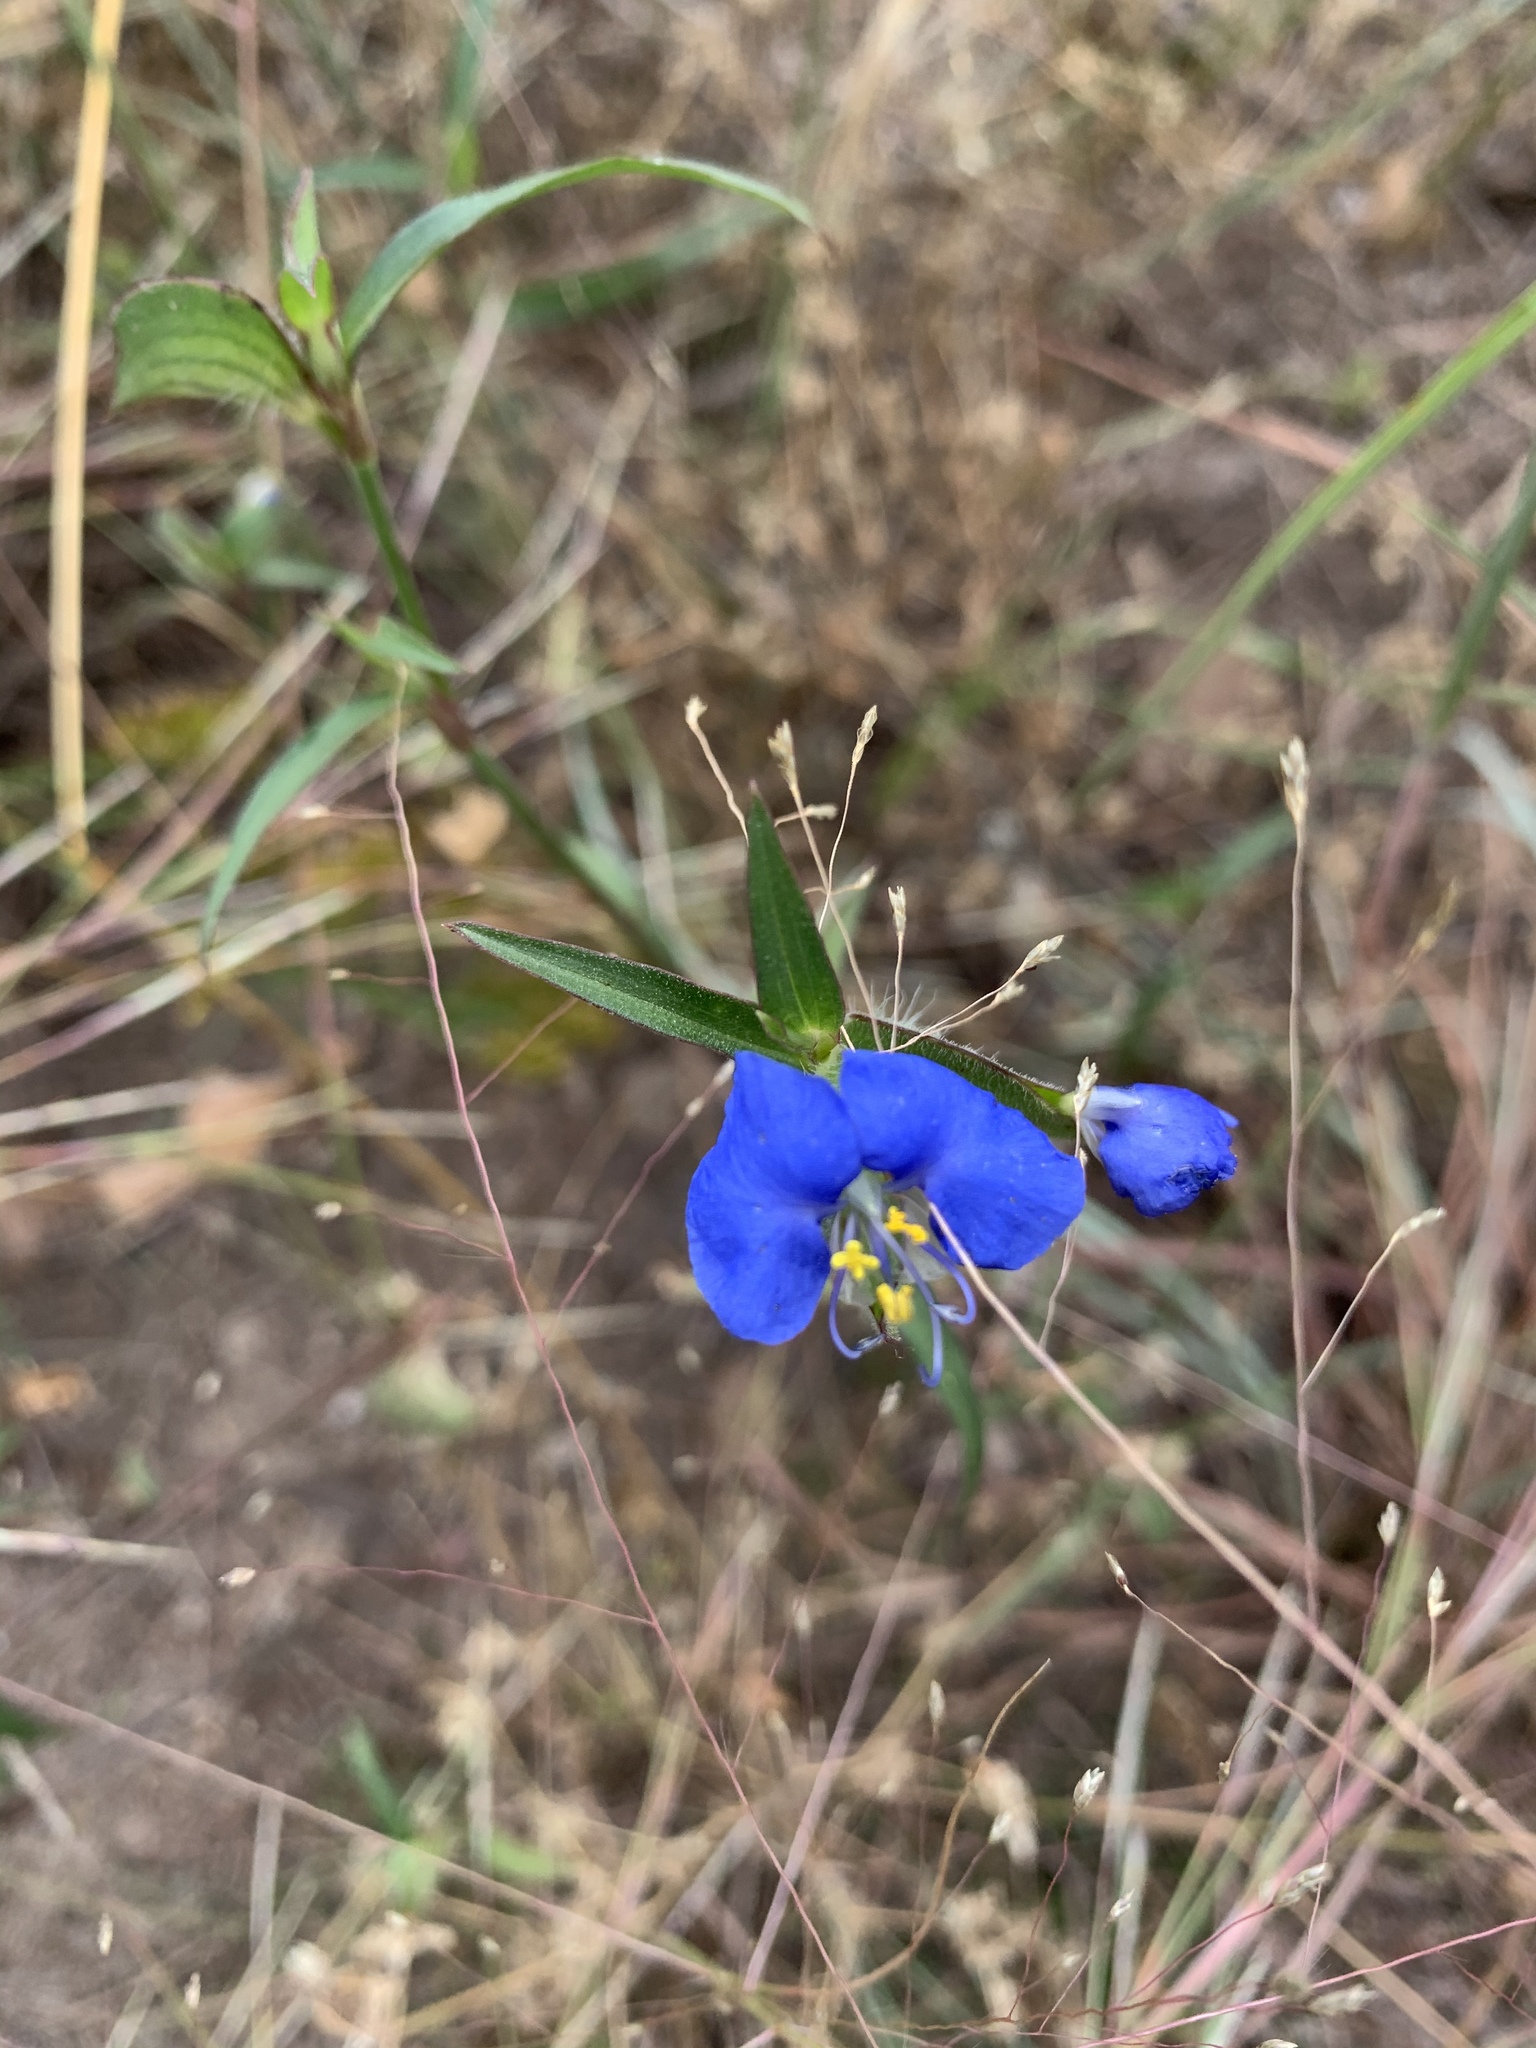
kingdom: Plantae
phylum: Tracheophyta
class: Liliopsida
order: Commelinales
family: Commelinaceae
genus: Commelina
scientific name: Commelina erecta
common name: Blousel blommetjie
